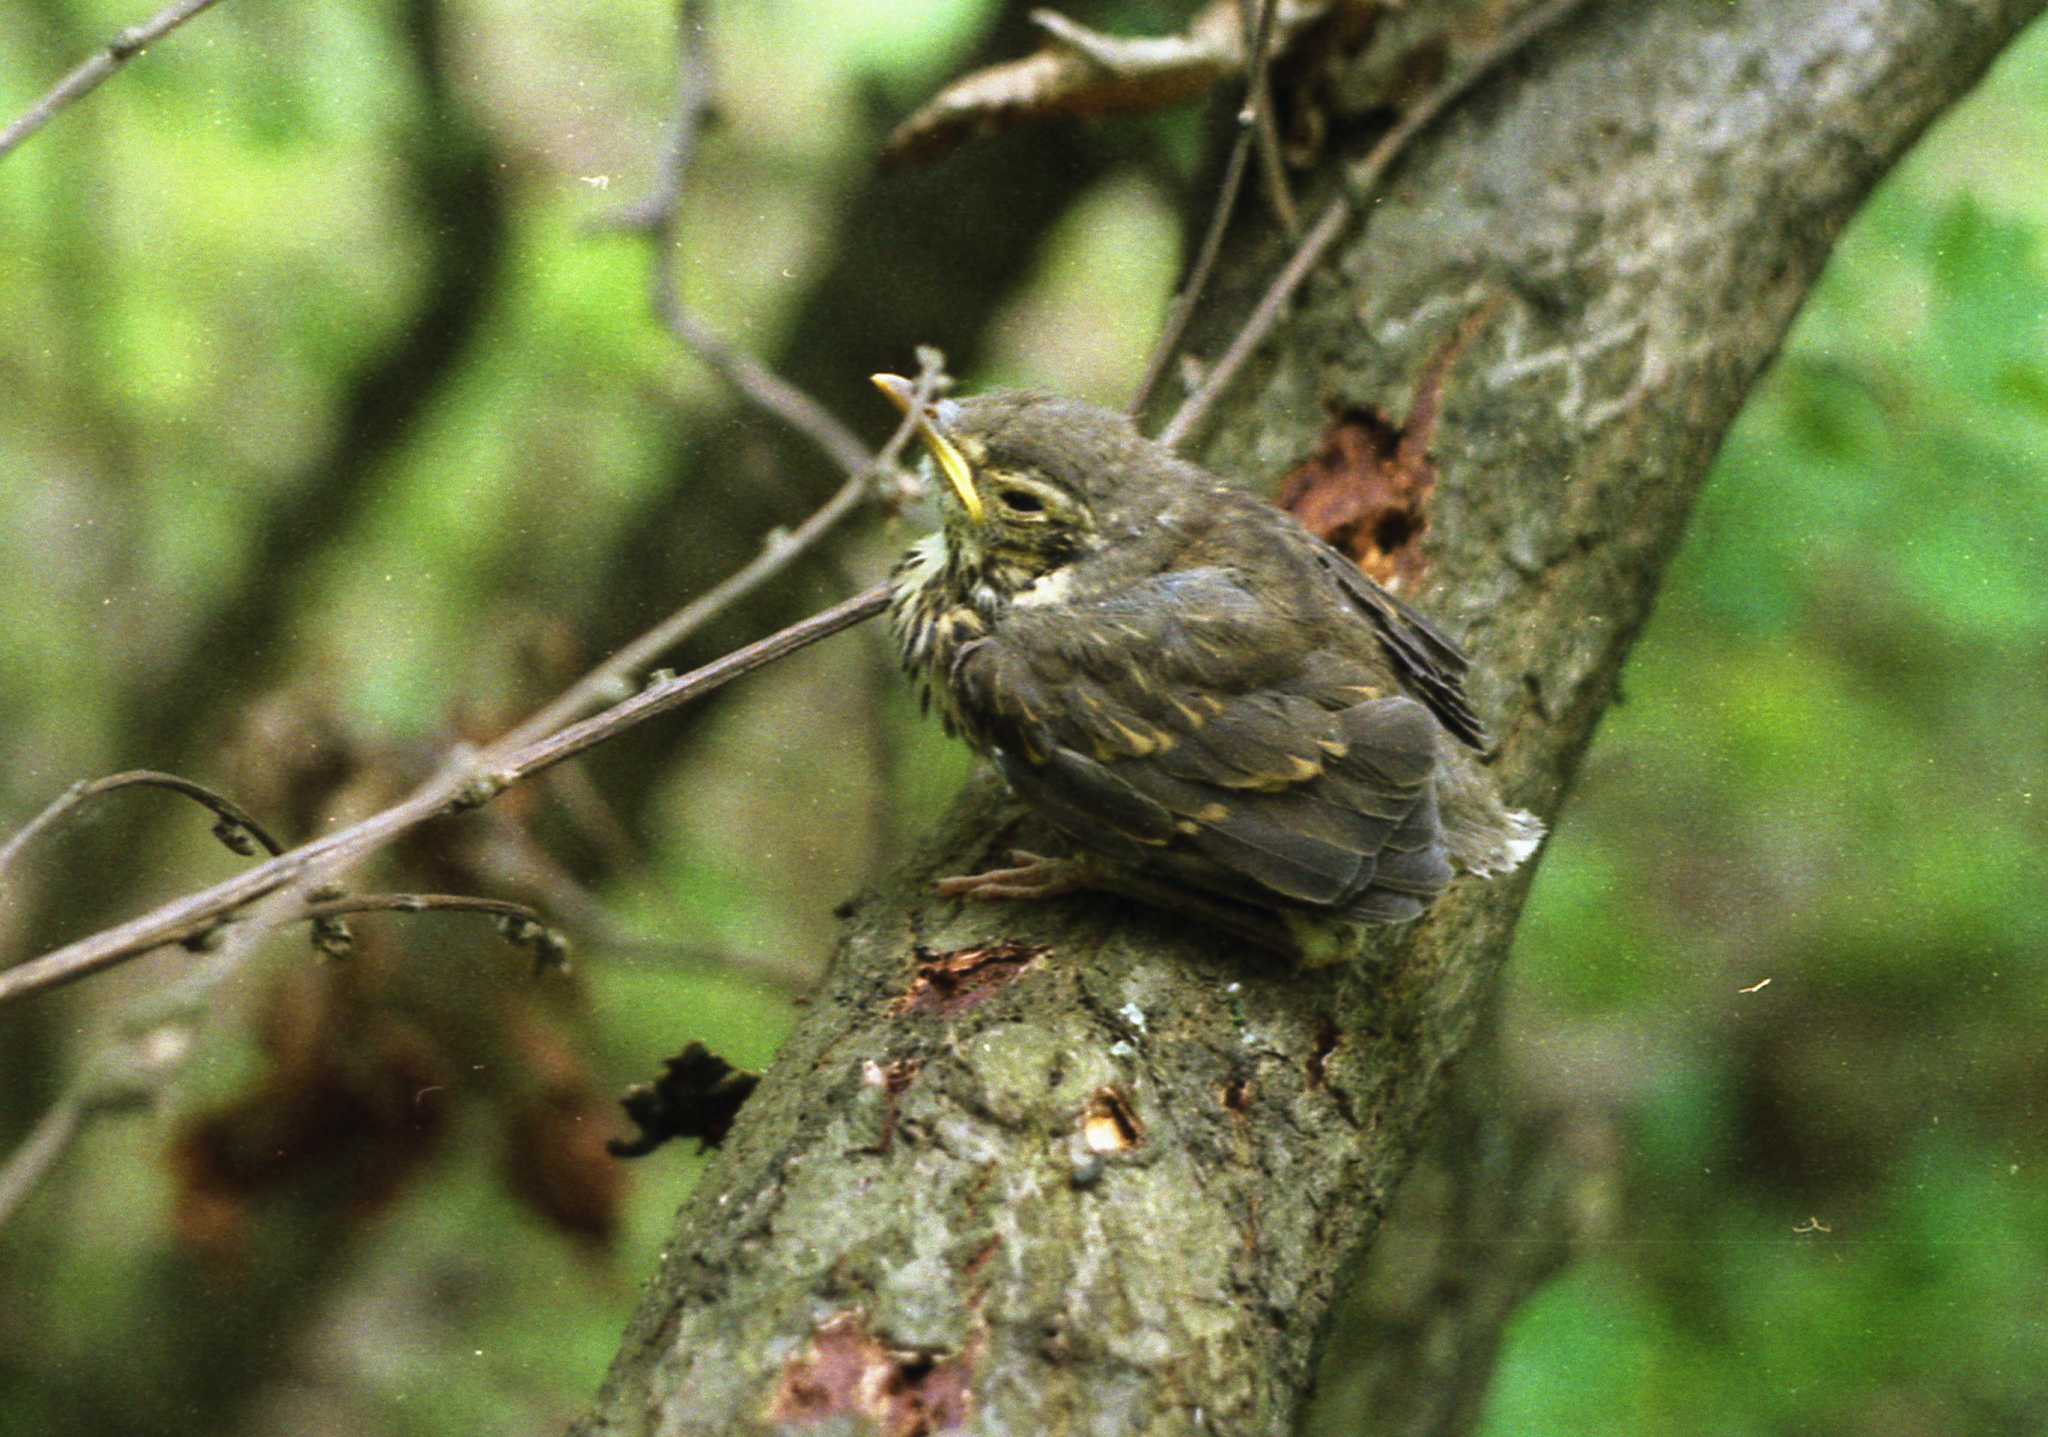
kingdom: Animalia
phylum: Chordata
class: Aves
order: Passeriformes
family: Turdidae
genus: Turdus
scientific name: Turdus philomelos
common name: Song thrush
